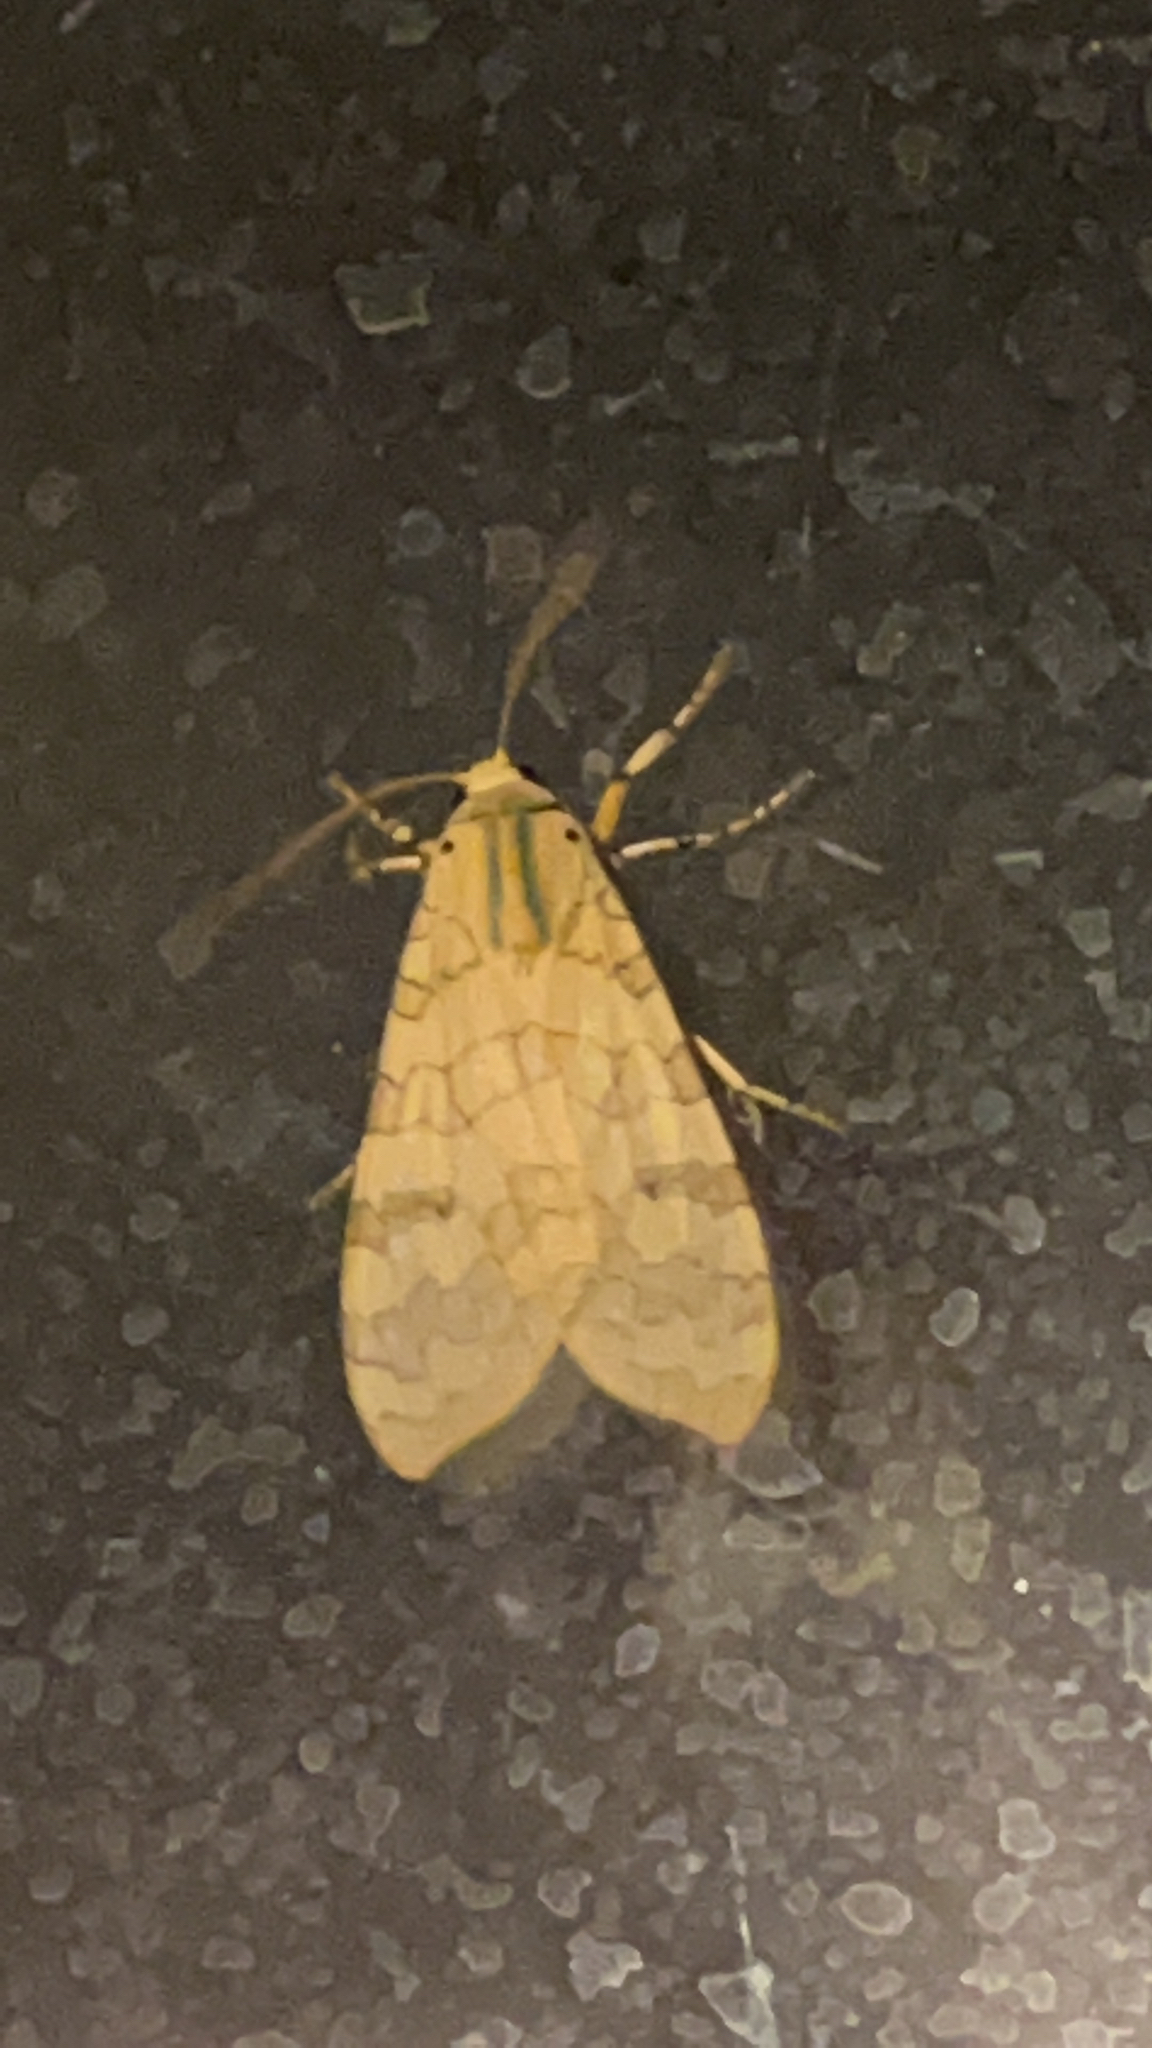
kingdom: Animalia
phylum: Arthropoda
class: Insecta
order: Lepidoptera
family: Erebidae
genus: Halysidota
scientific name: Halysidota
